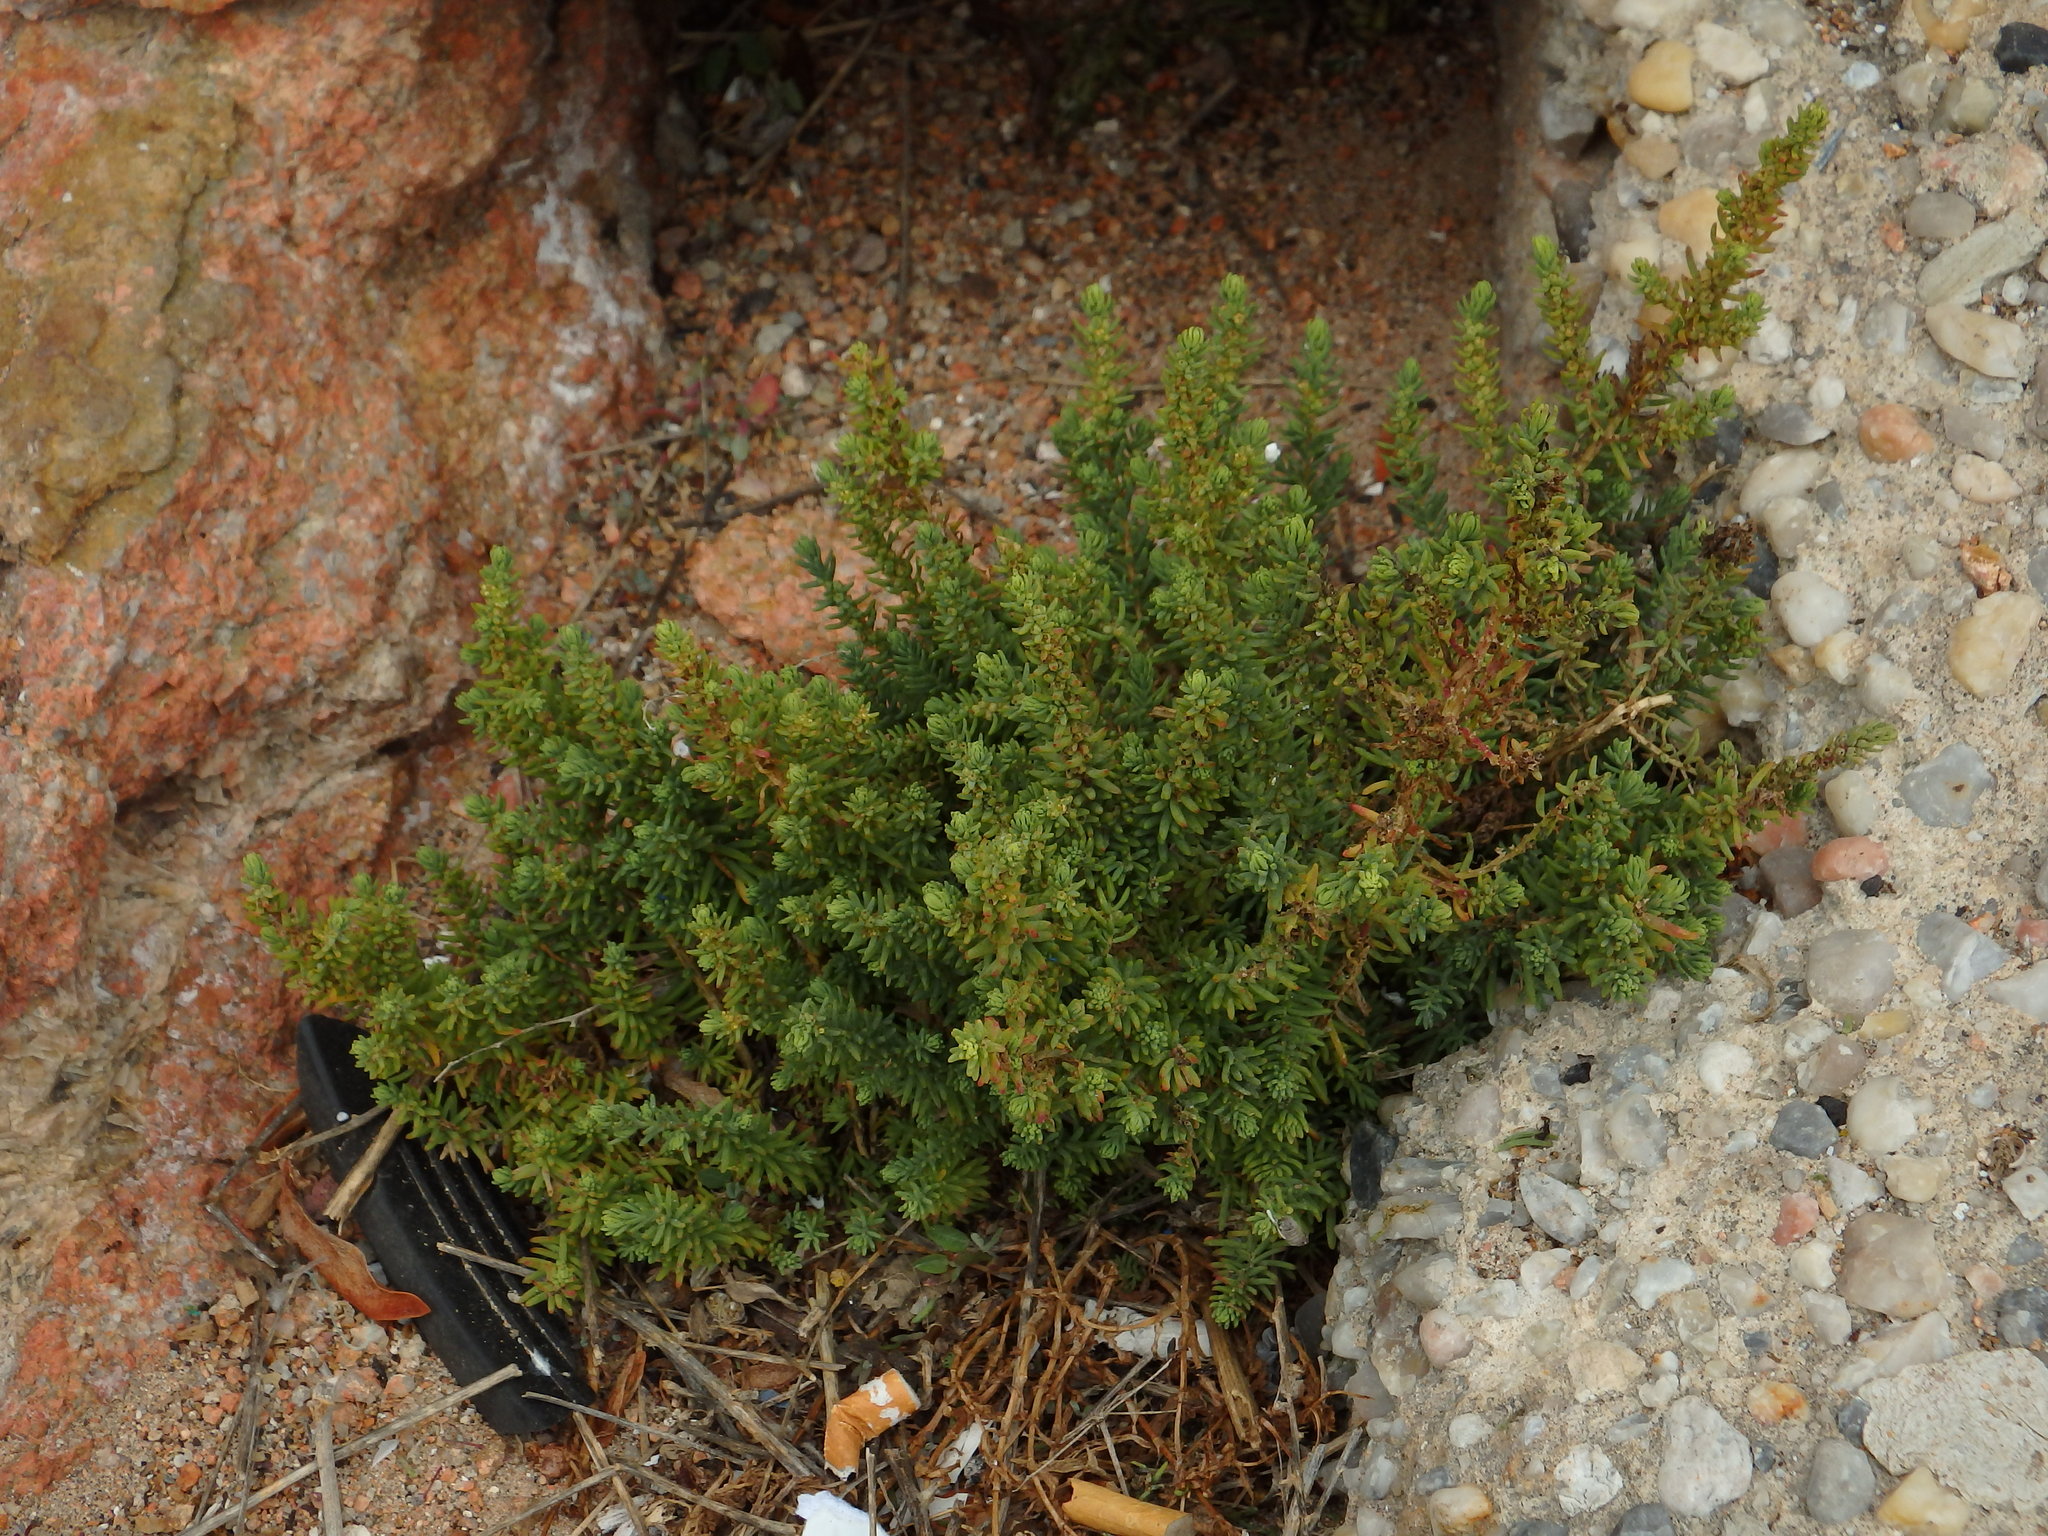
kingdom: Plantae
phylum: Tracheophyta
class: Magnoliopsida
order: Caryophyllales
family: Amaranthaceae
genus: Suaeda
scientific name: Suaeda vera
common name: Shrubby sea-blite
